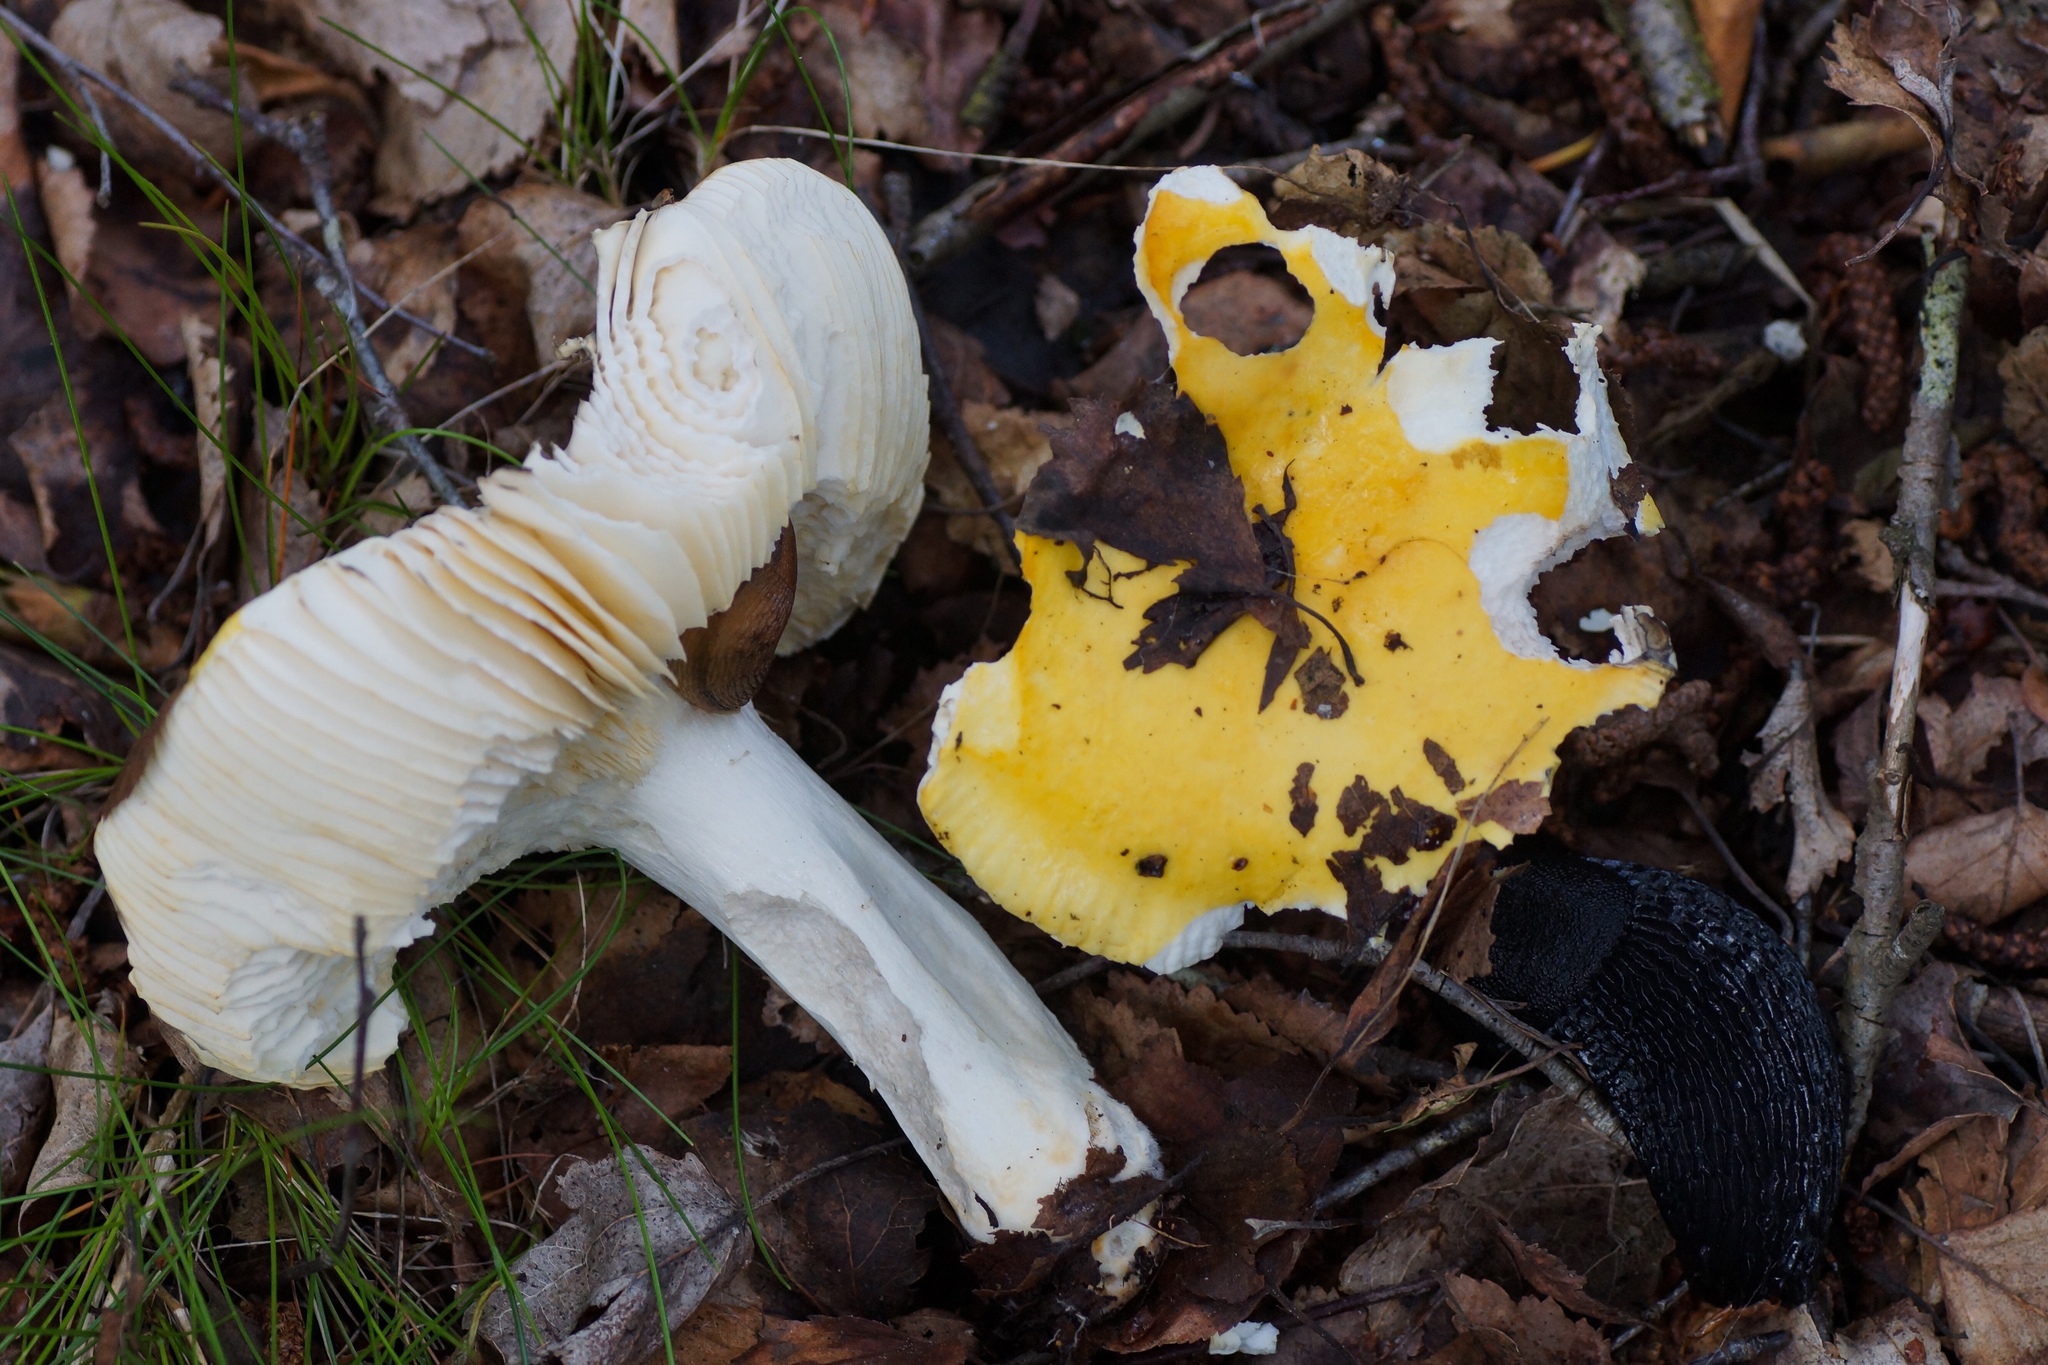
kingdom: Fungi
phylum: Basidiomycota
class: Agaricomycetes
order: Russulales
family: Russulaceae
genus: Russula
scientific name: Russula claroflava
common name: The yellow swamp brittlegill
